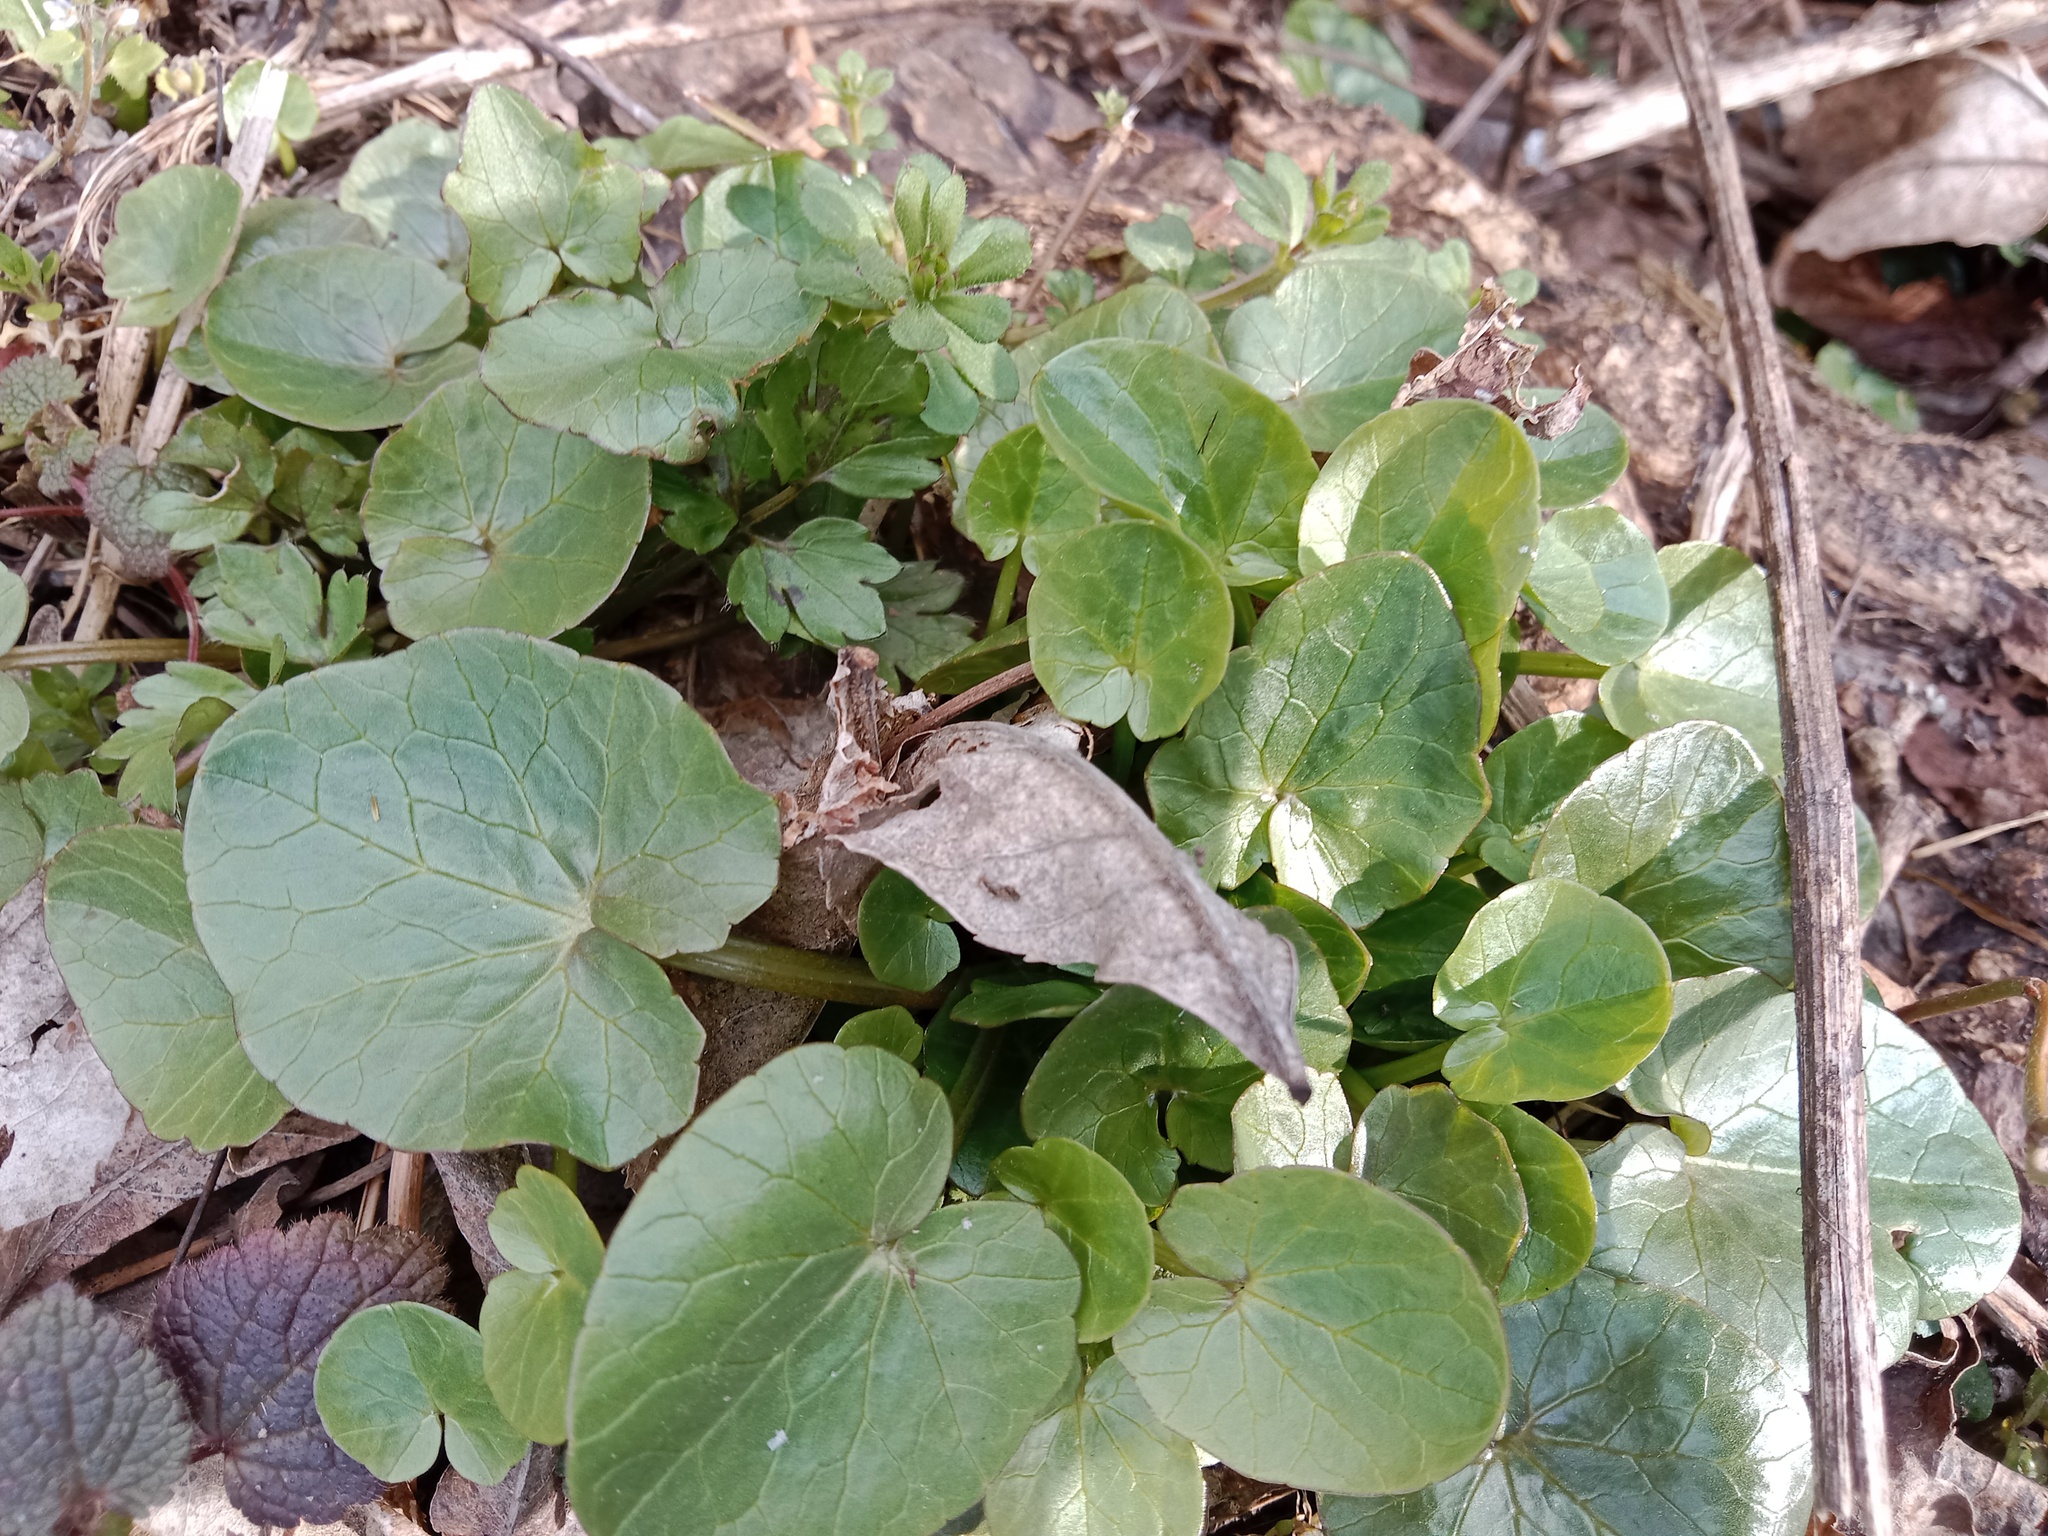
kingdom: Plantae
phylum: Tracheophyta
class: Magnoliopsida
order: Ranunculales
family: Ranunculaceae
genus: Ficaria
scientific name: Ficaria verna
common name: Lesser celandine
